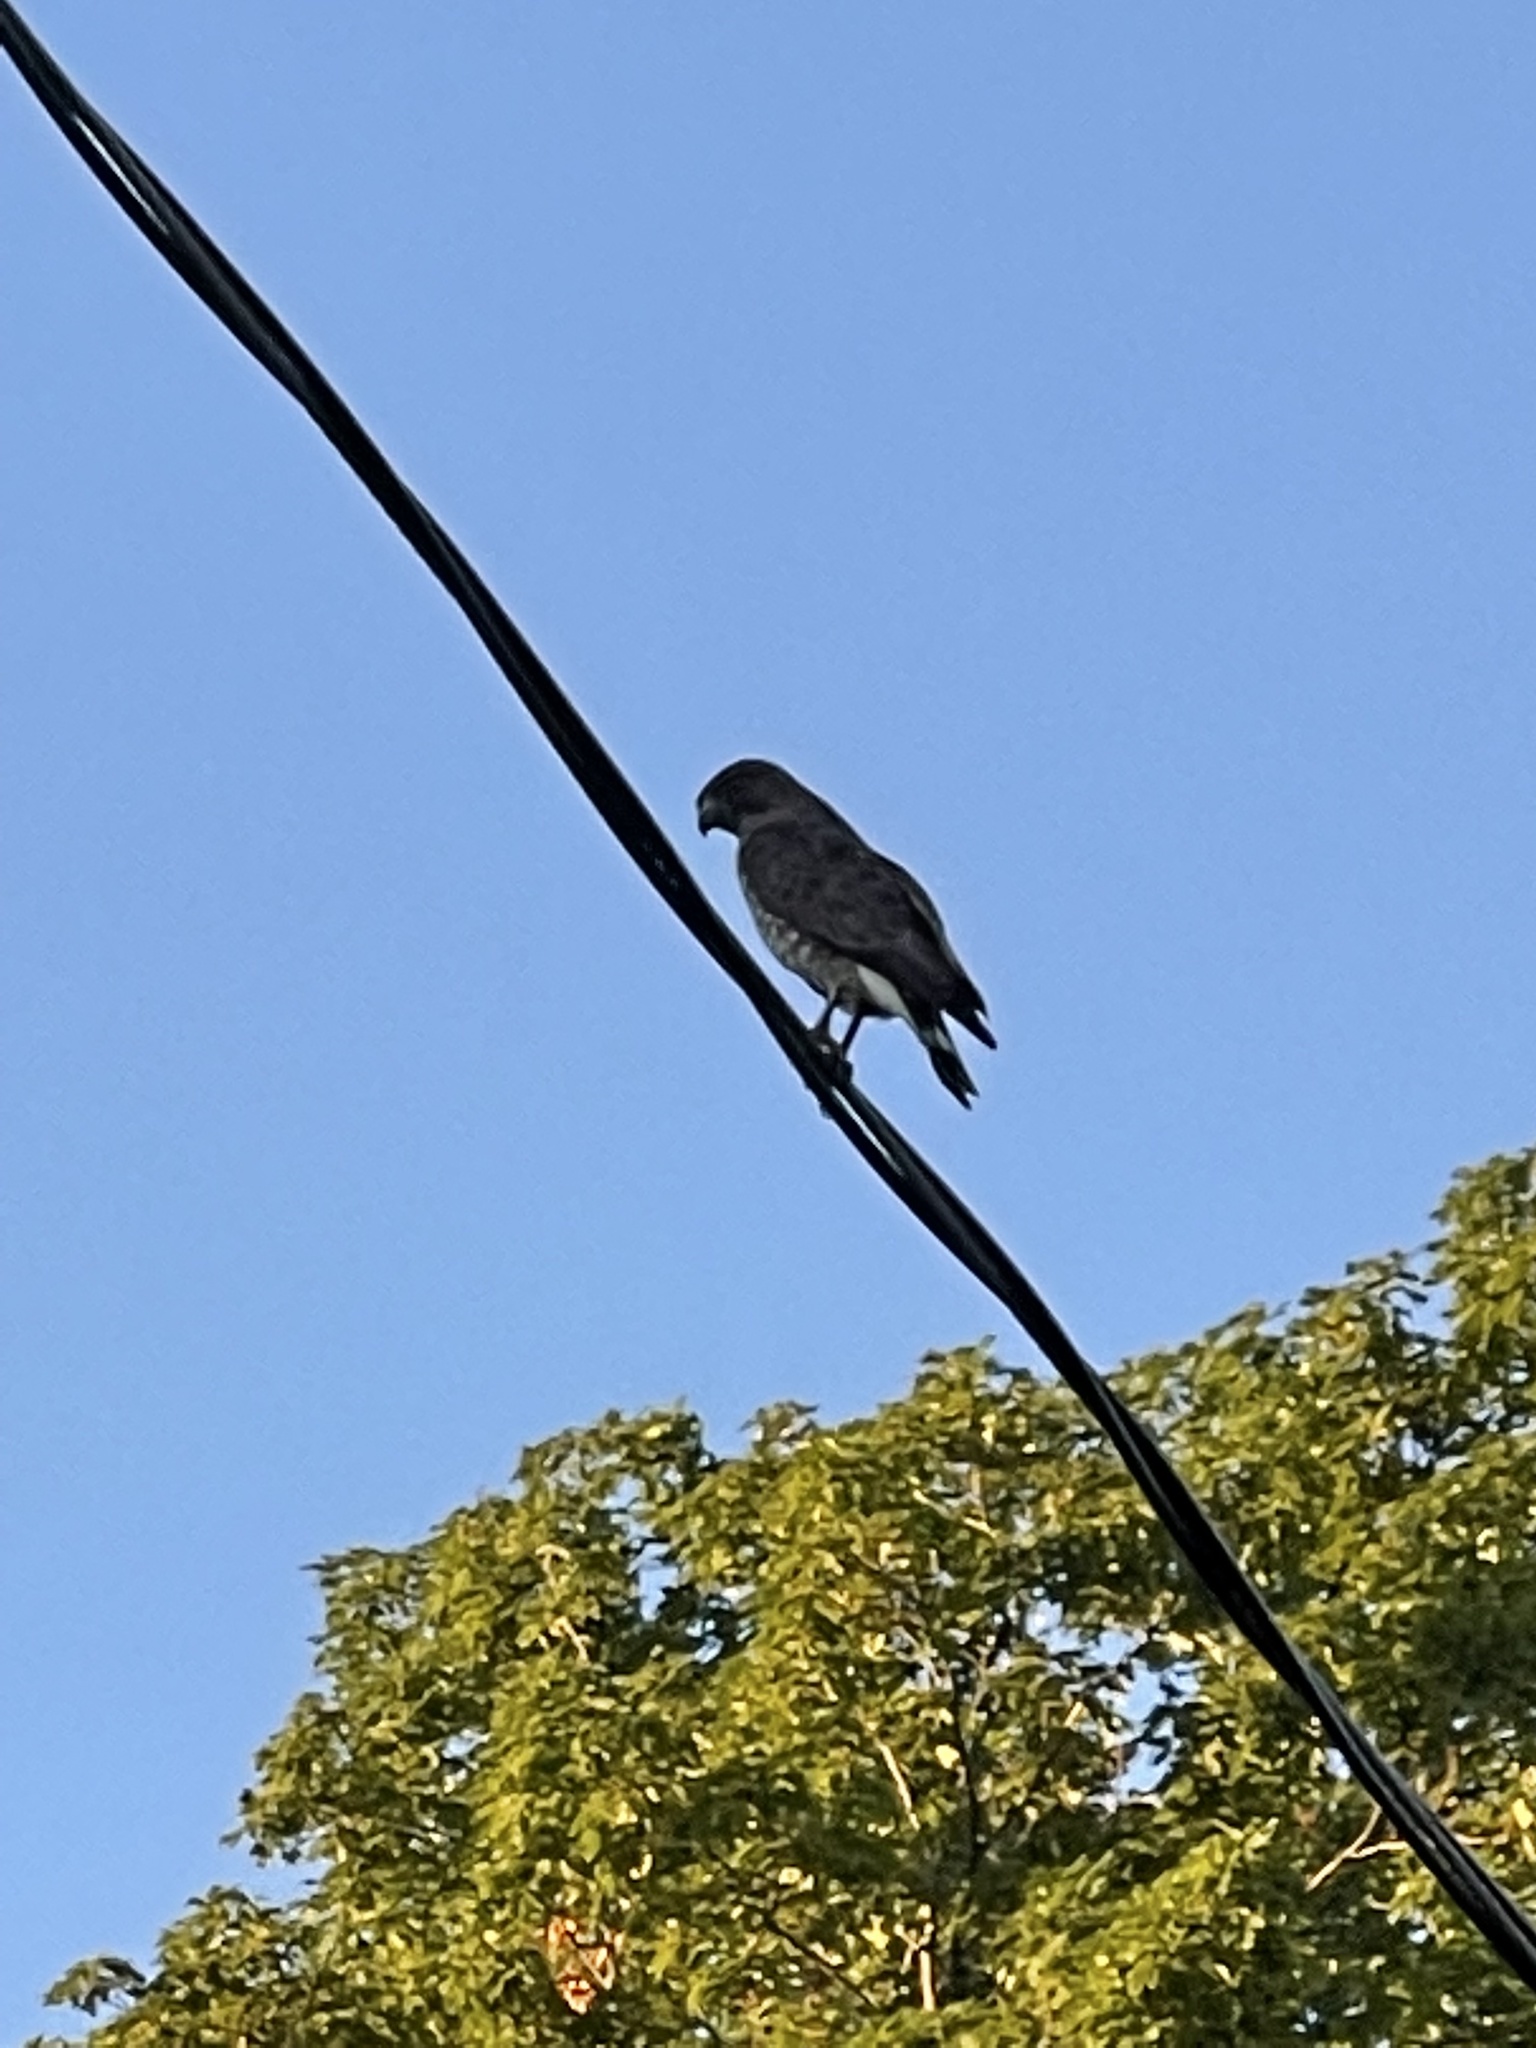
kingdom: Animalia
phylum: Chordata
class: Aves
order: Accipitriformes
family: Accipitridae
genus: Buteo
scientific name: Buteo platypterus
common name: Broad-winged hawk
